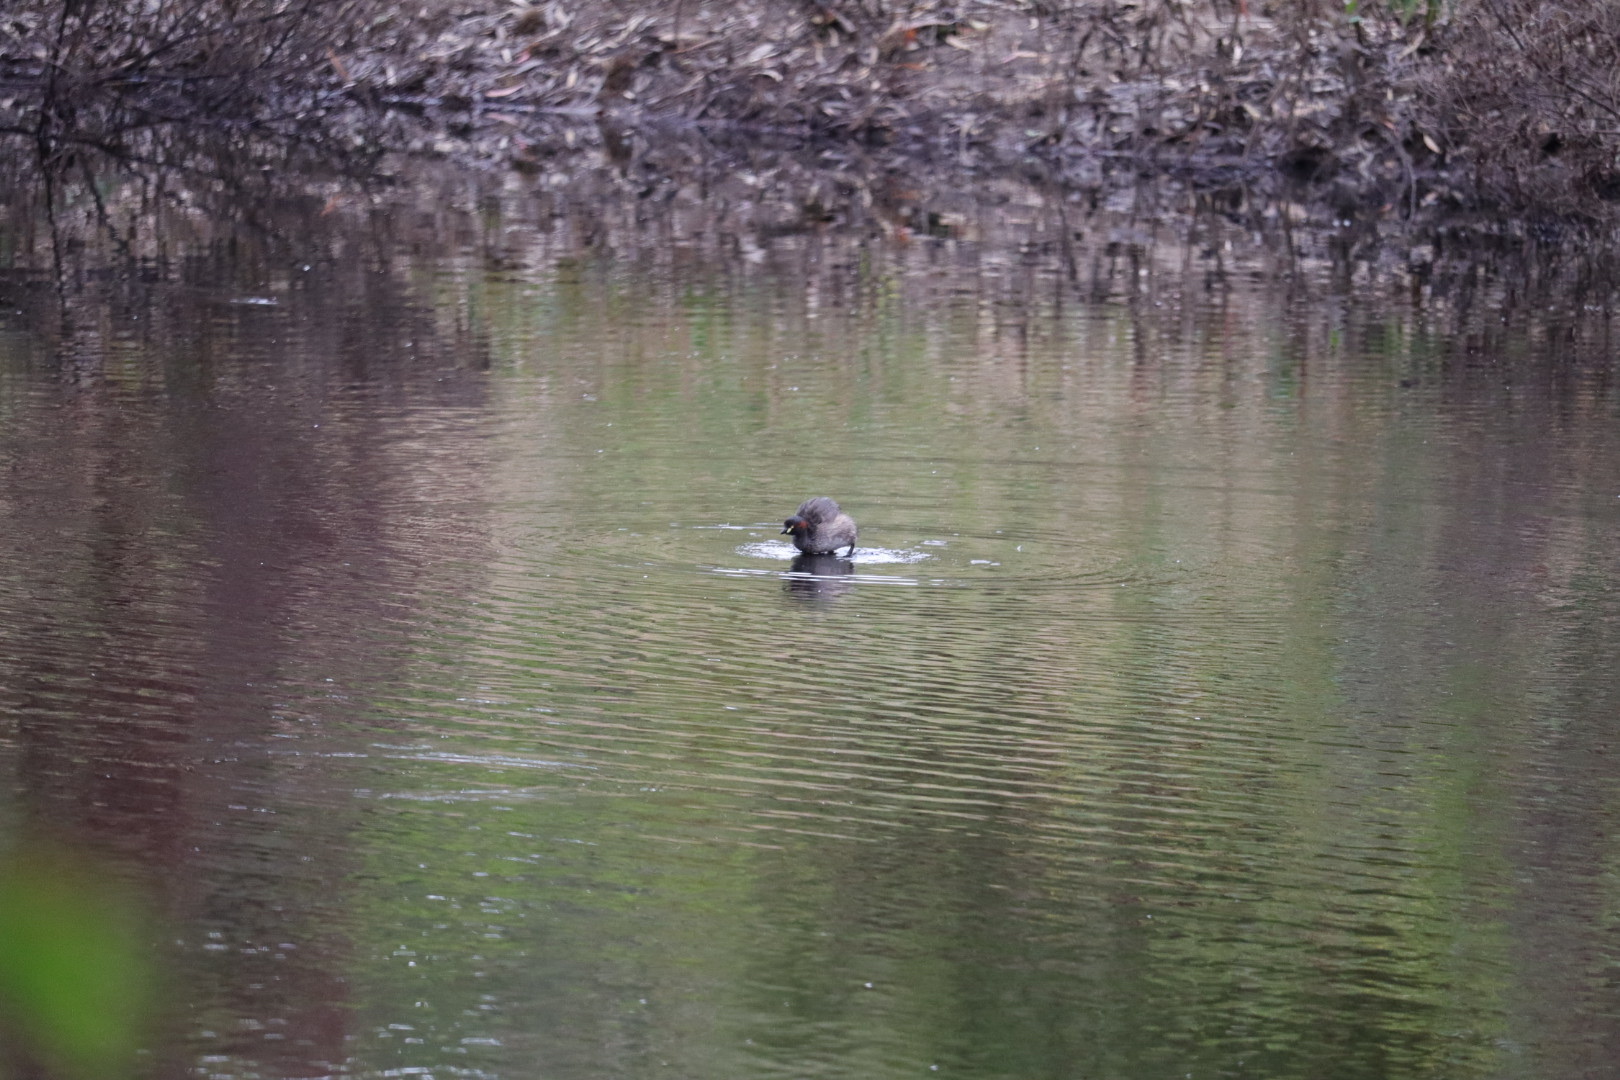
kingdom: Animalia
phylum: Chordata
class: Aves
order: Podicipediformes
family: Podicipedidae
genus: Tachybaptus
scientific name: Tachybaptus novaehollandiae
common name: Australasian grebe
